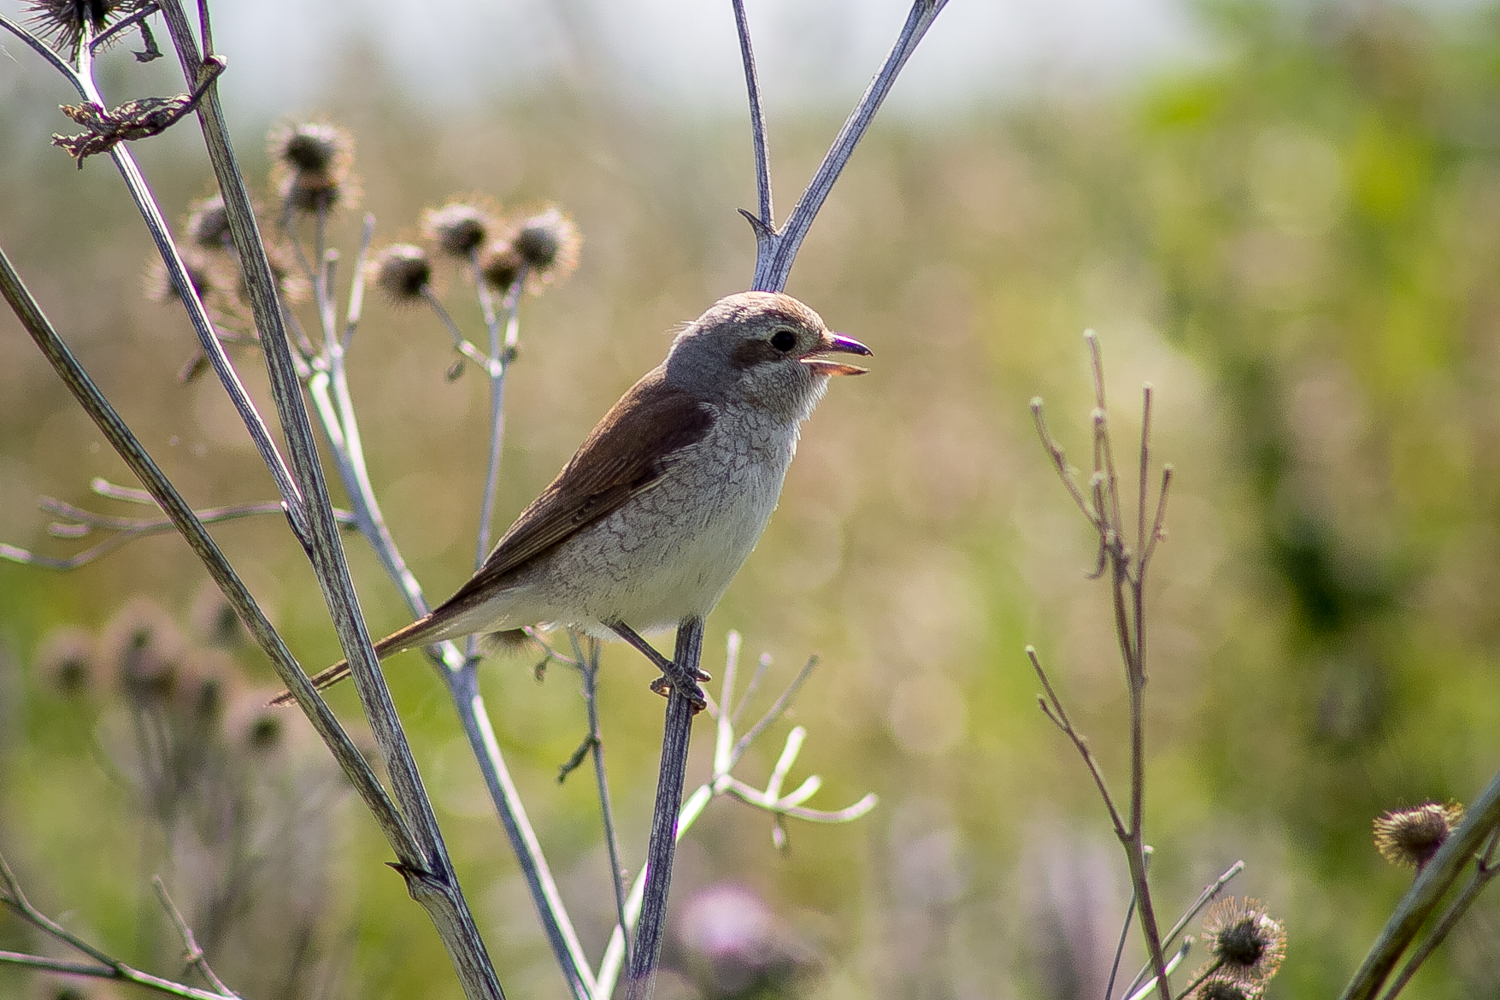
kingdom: Animalia
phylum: Chordata
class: Aves
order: Passeriformes
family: Laniidae
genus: Lanius
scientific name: Lanius collurio
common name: Red-backed shrike
